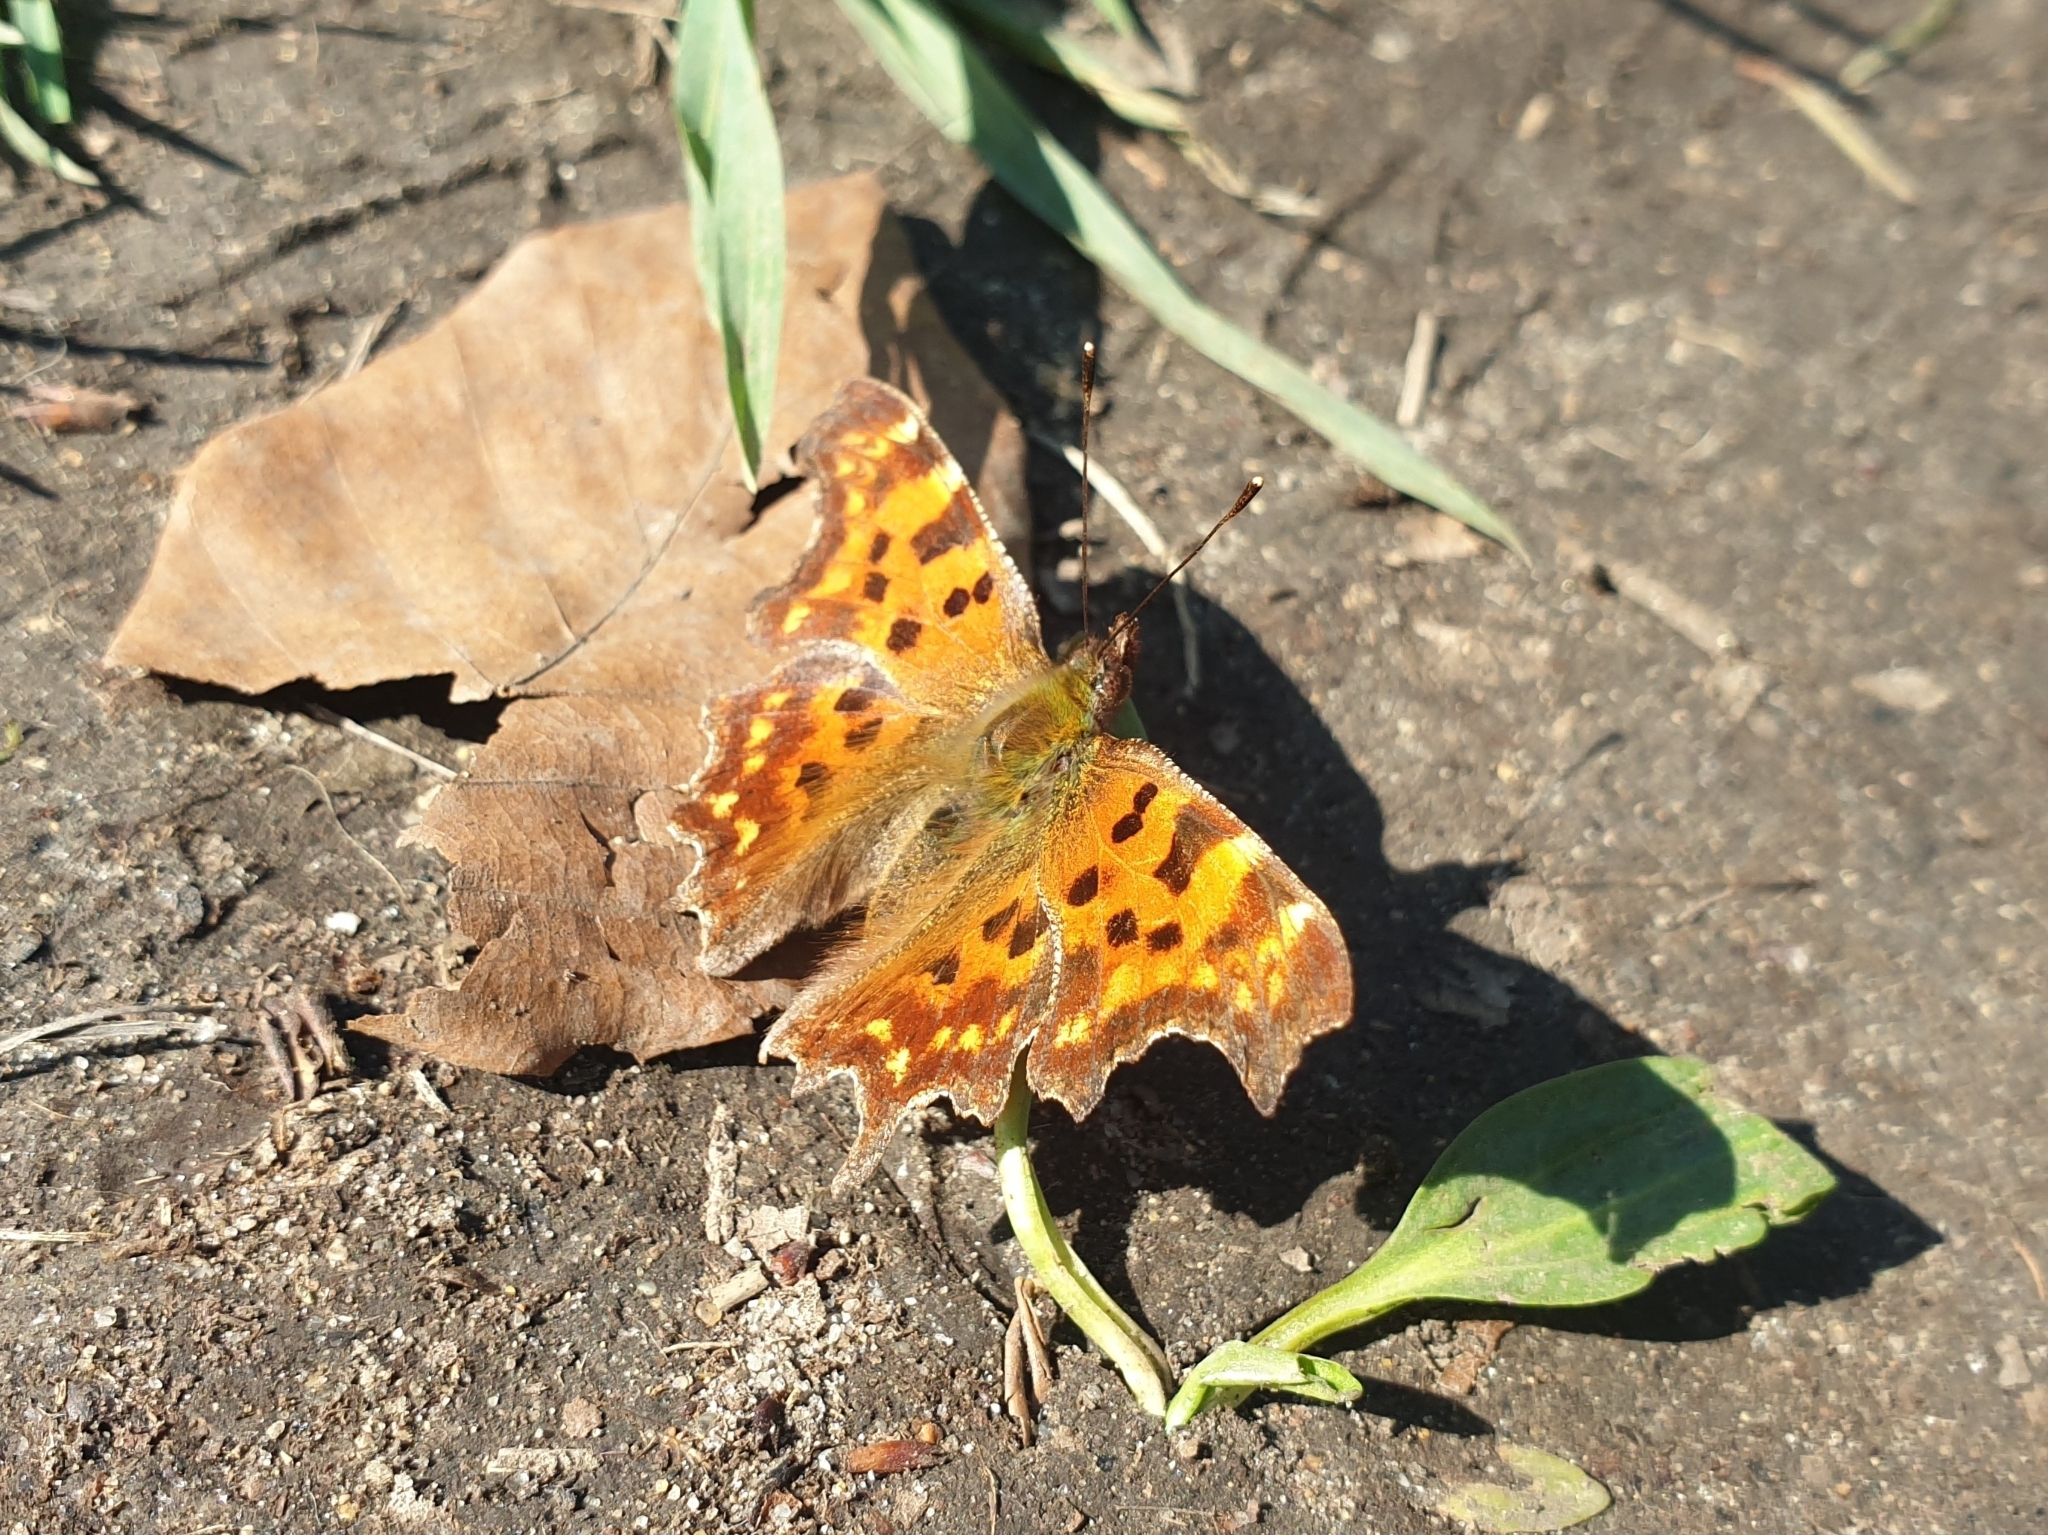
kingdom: Animalia
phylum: Arthropoda
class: Insecta
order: Lepidoptera
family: Nymphalidae
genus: Polygonia
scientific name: Polygonia c-album
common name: Comma
